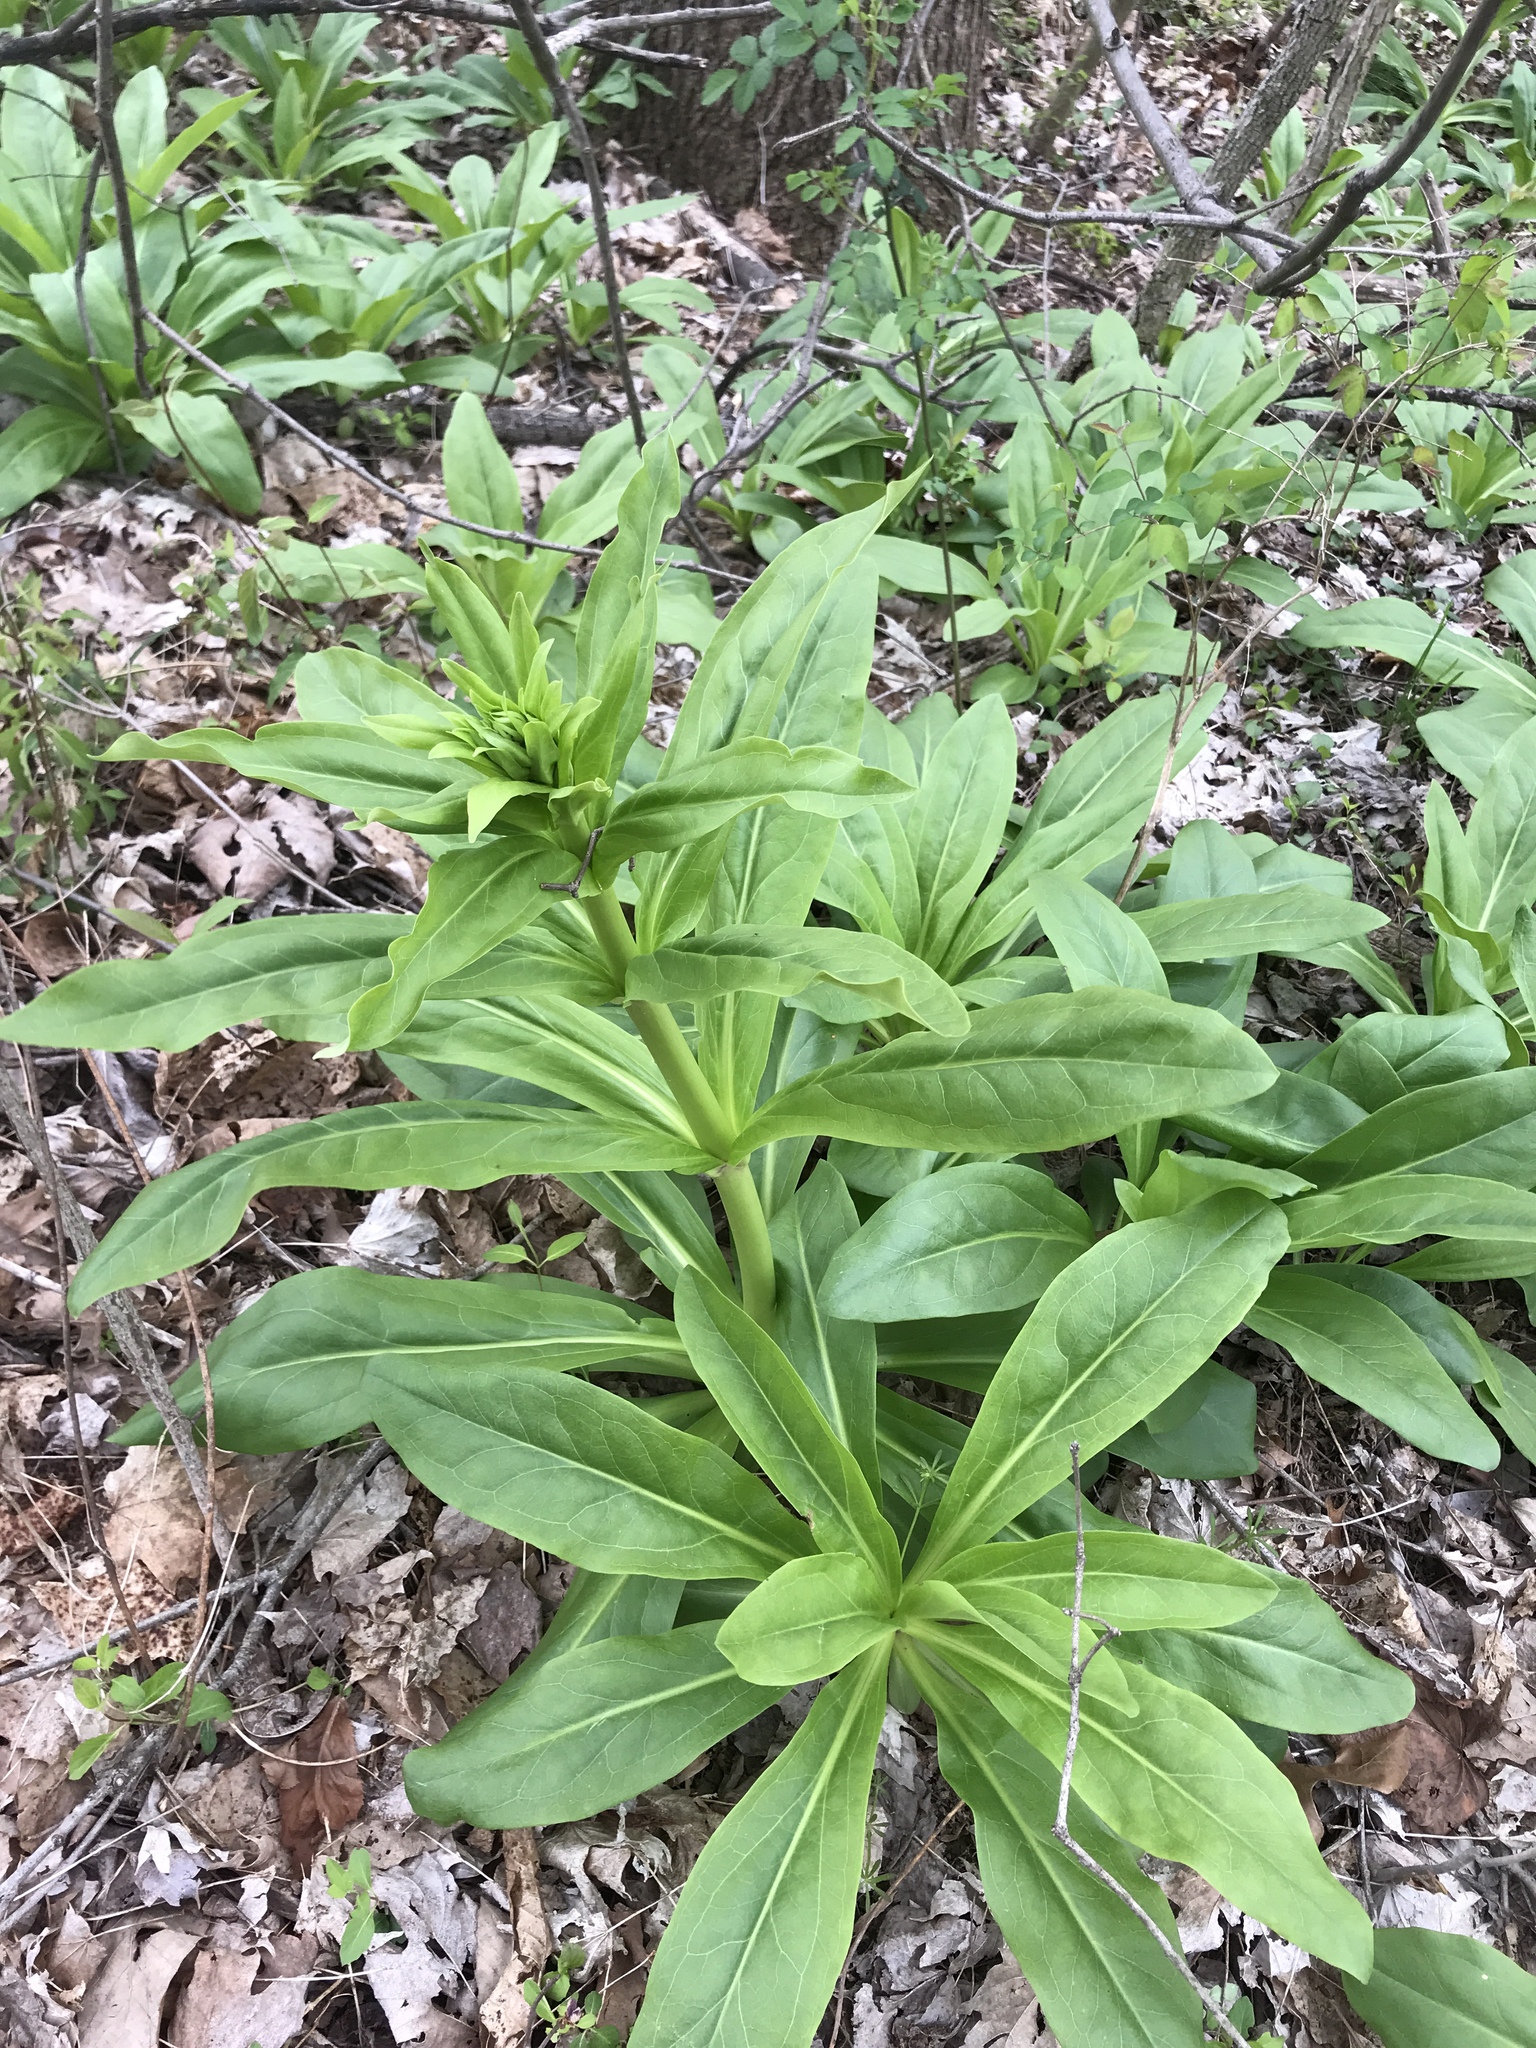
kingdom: Plantae
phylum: Tracheophyta
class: Magnoliopsida
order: Gentianales
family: Gentianaceae
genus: Frasera
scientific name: Frasera caroliniensis
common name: American columbo
